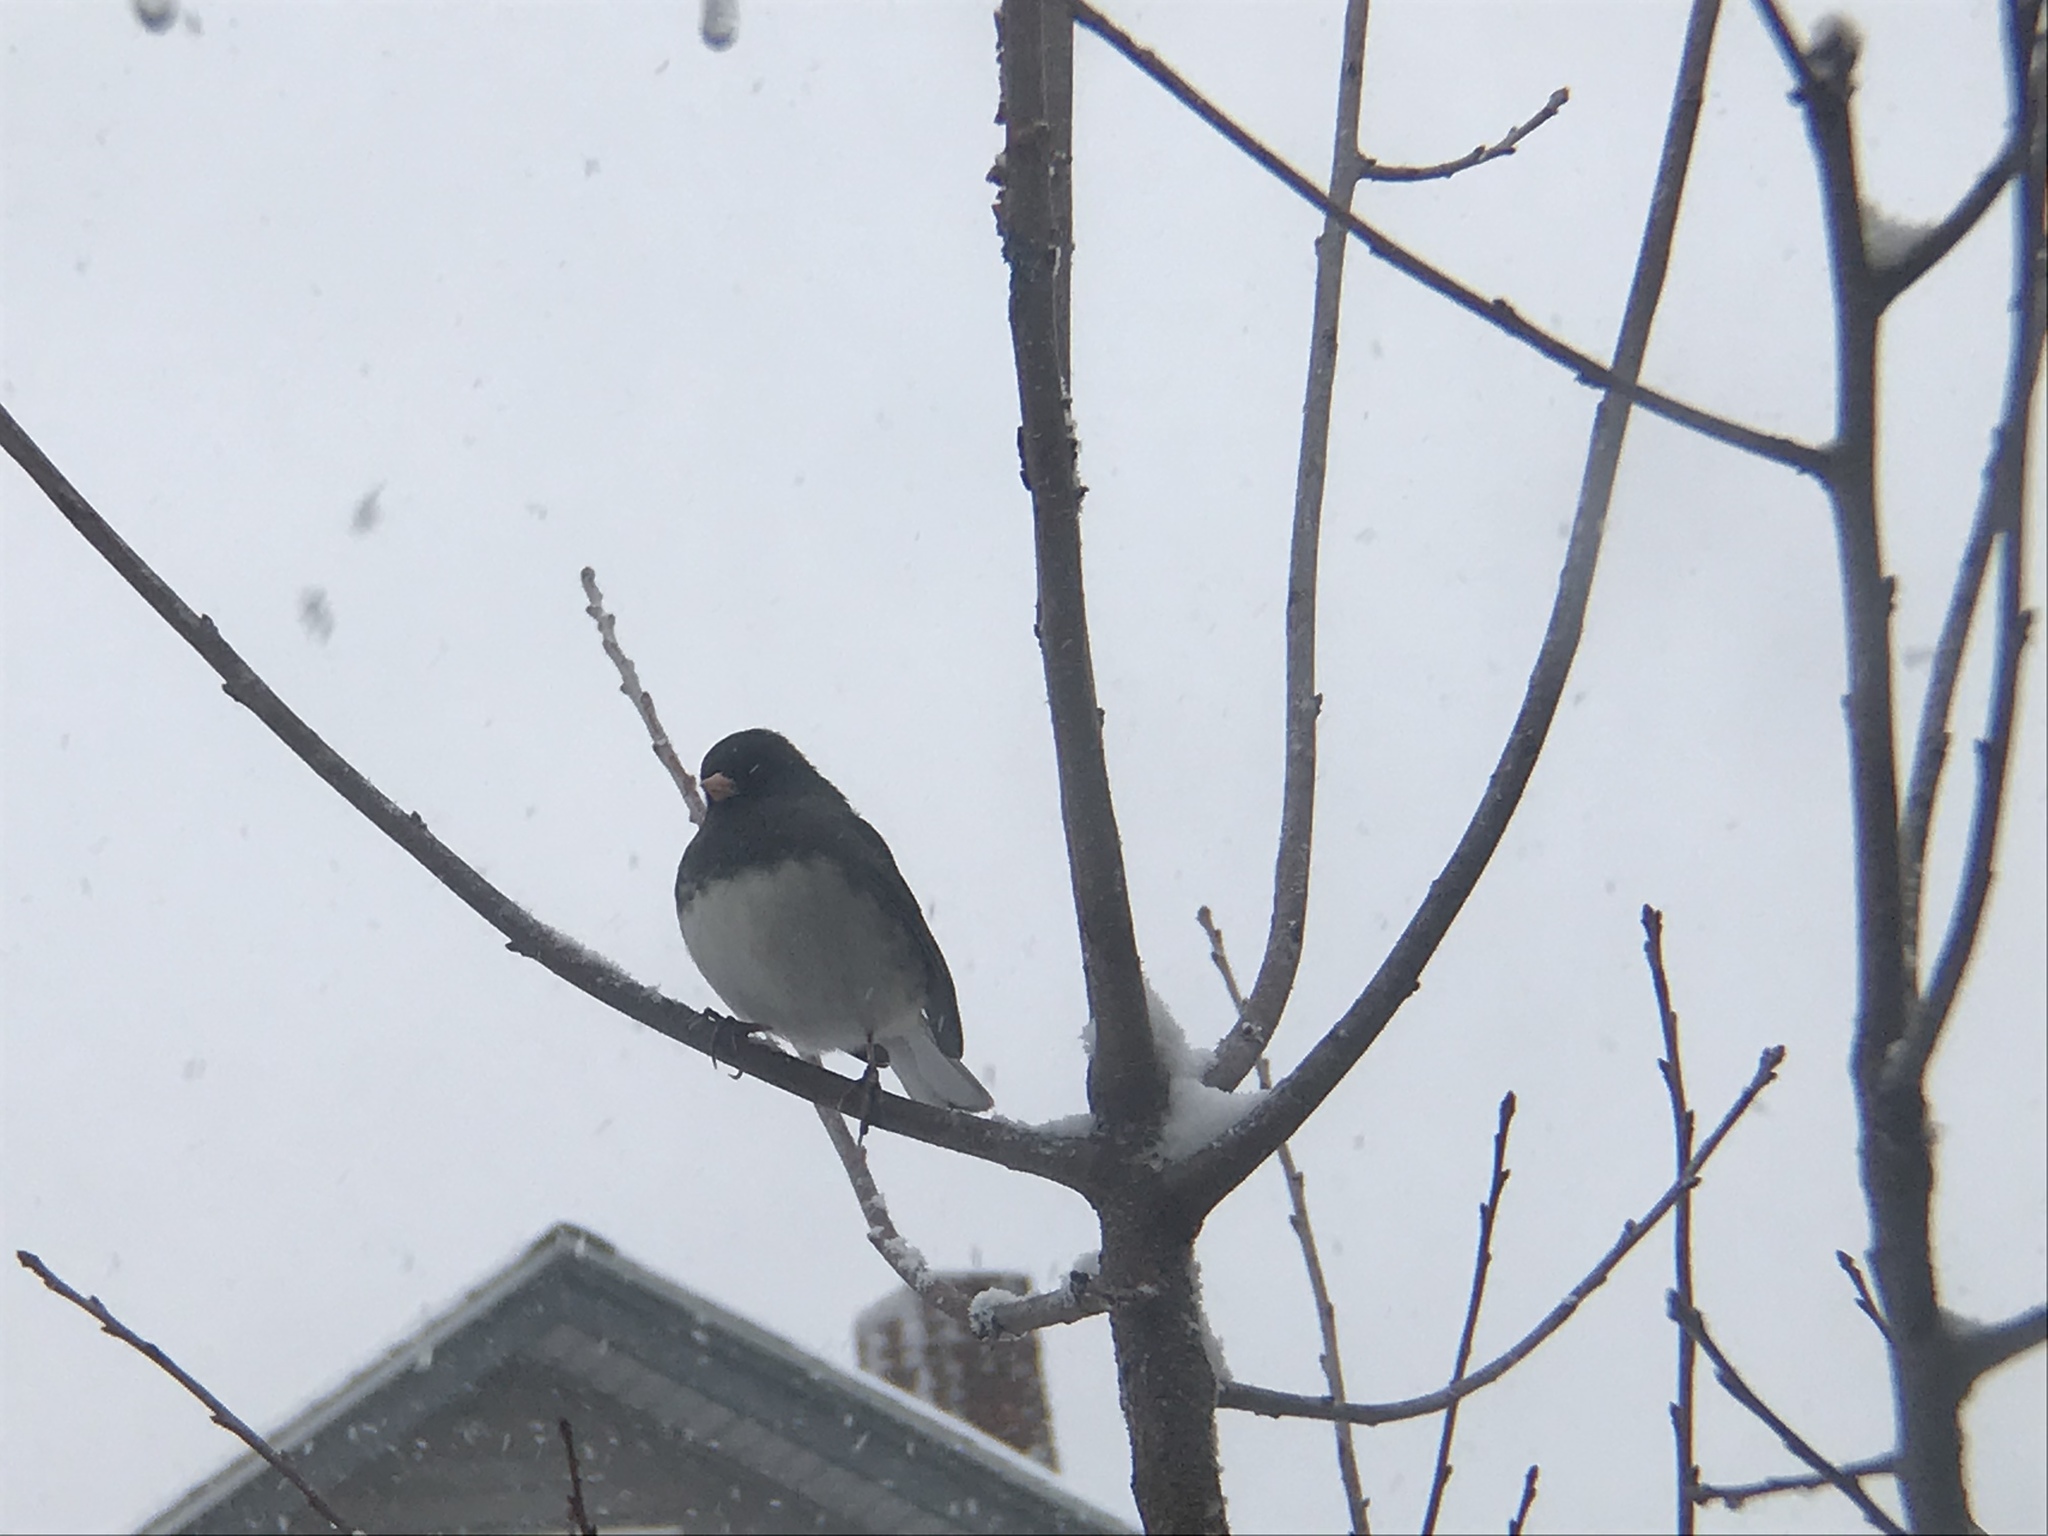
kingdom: Animalia
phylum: Chordata
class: Aves
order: Passeriformes
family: Passerellidae
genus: Junco
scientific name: Junco hyemalis
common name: Dark-eyed junco
